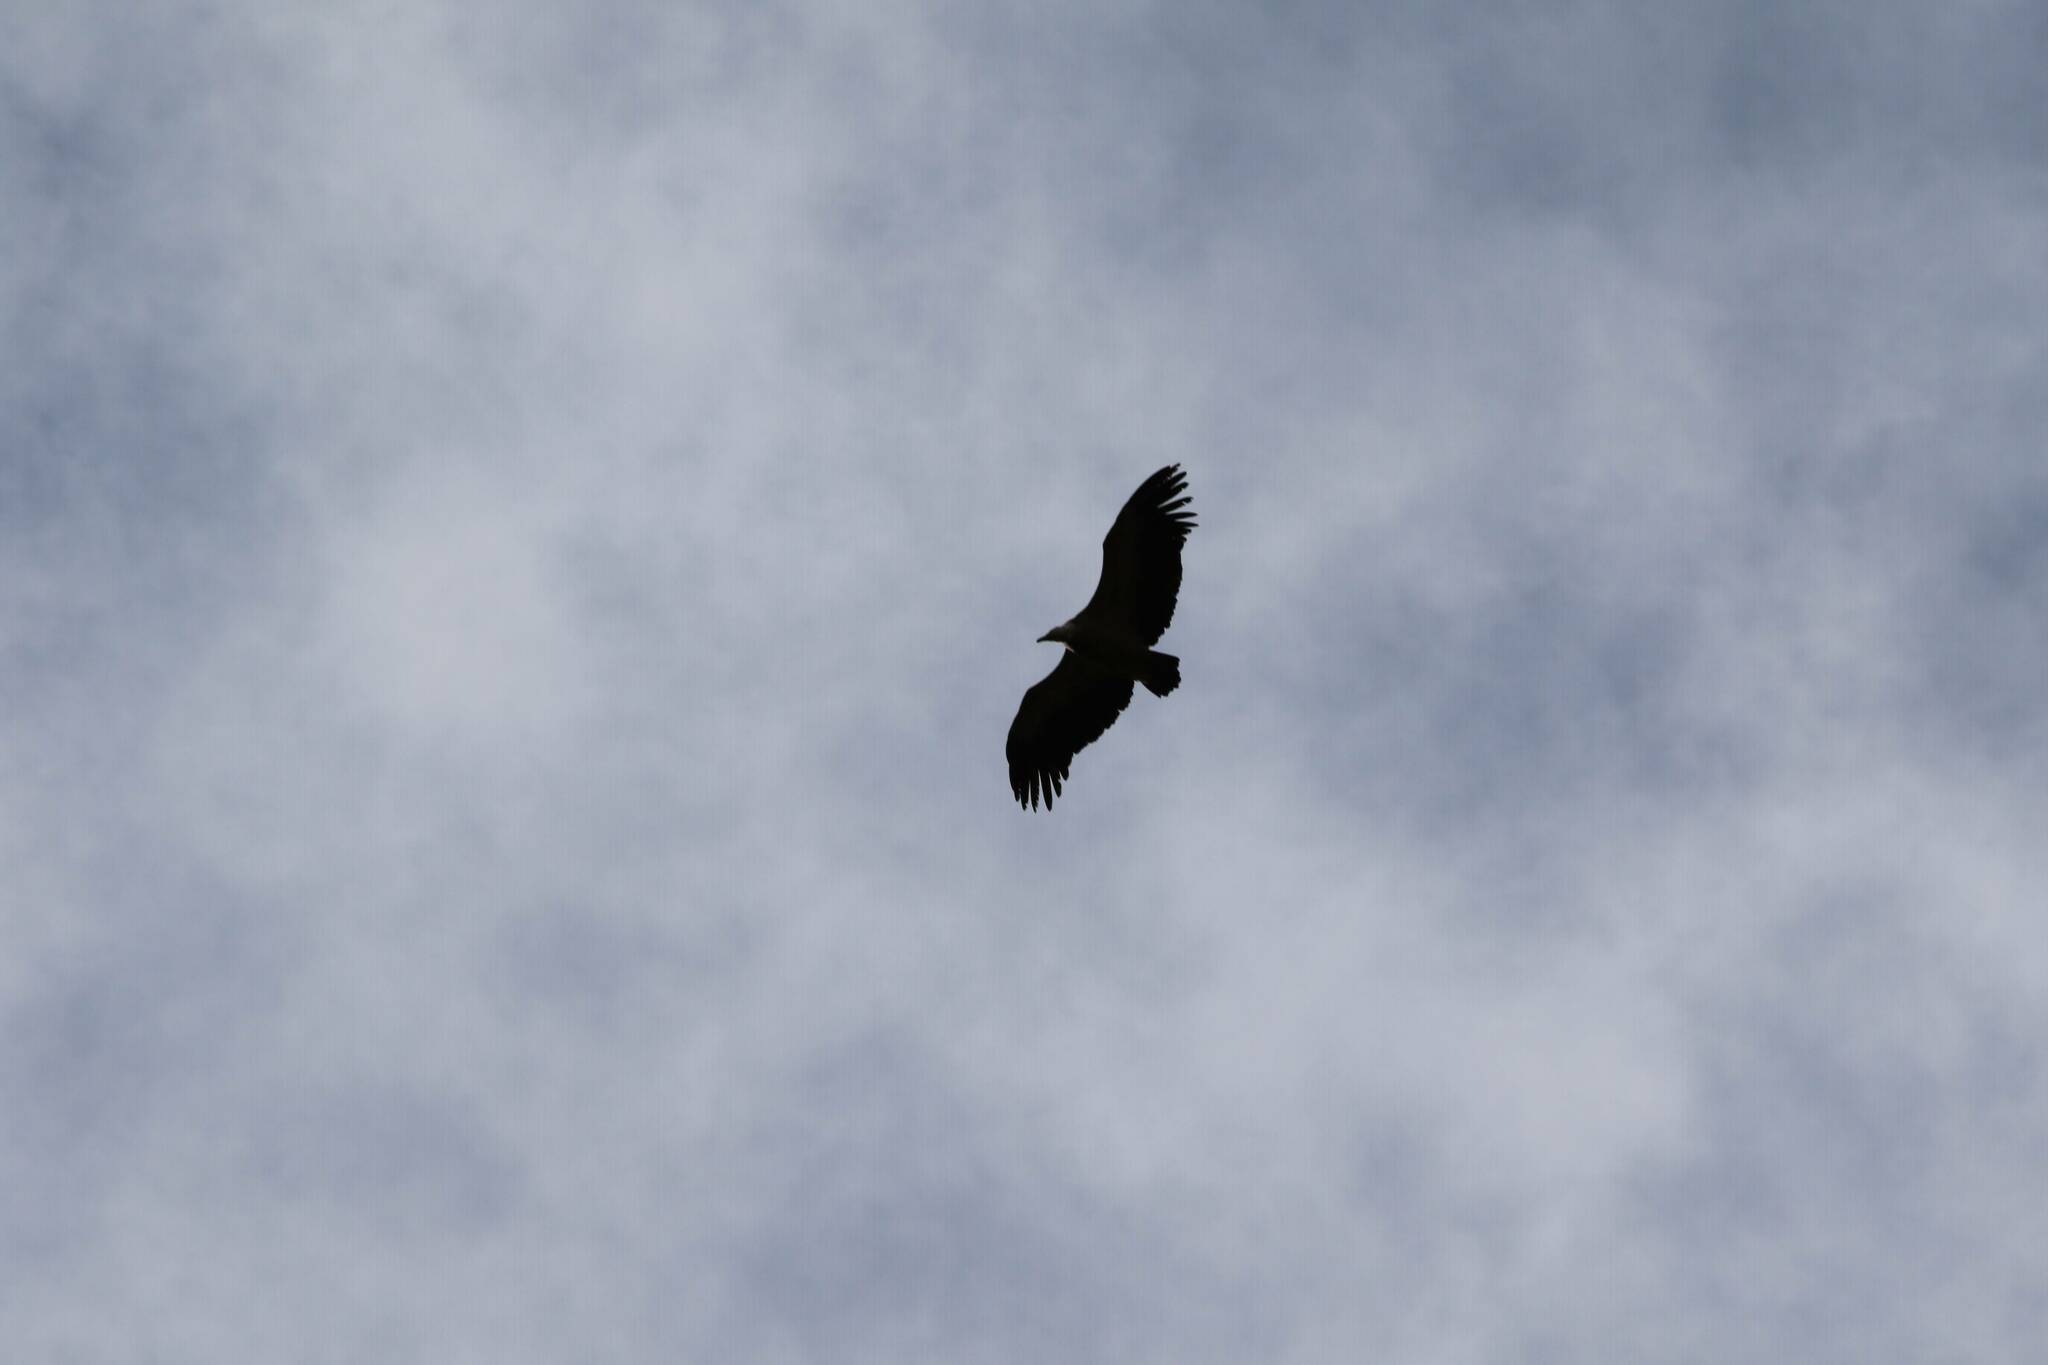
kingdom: Animalia
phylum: Chordata
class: Aves
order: Accipitriformes
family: Accipitridae
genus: Gyps
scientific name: Gyps fulvus
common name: Griffon vulture
